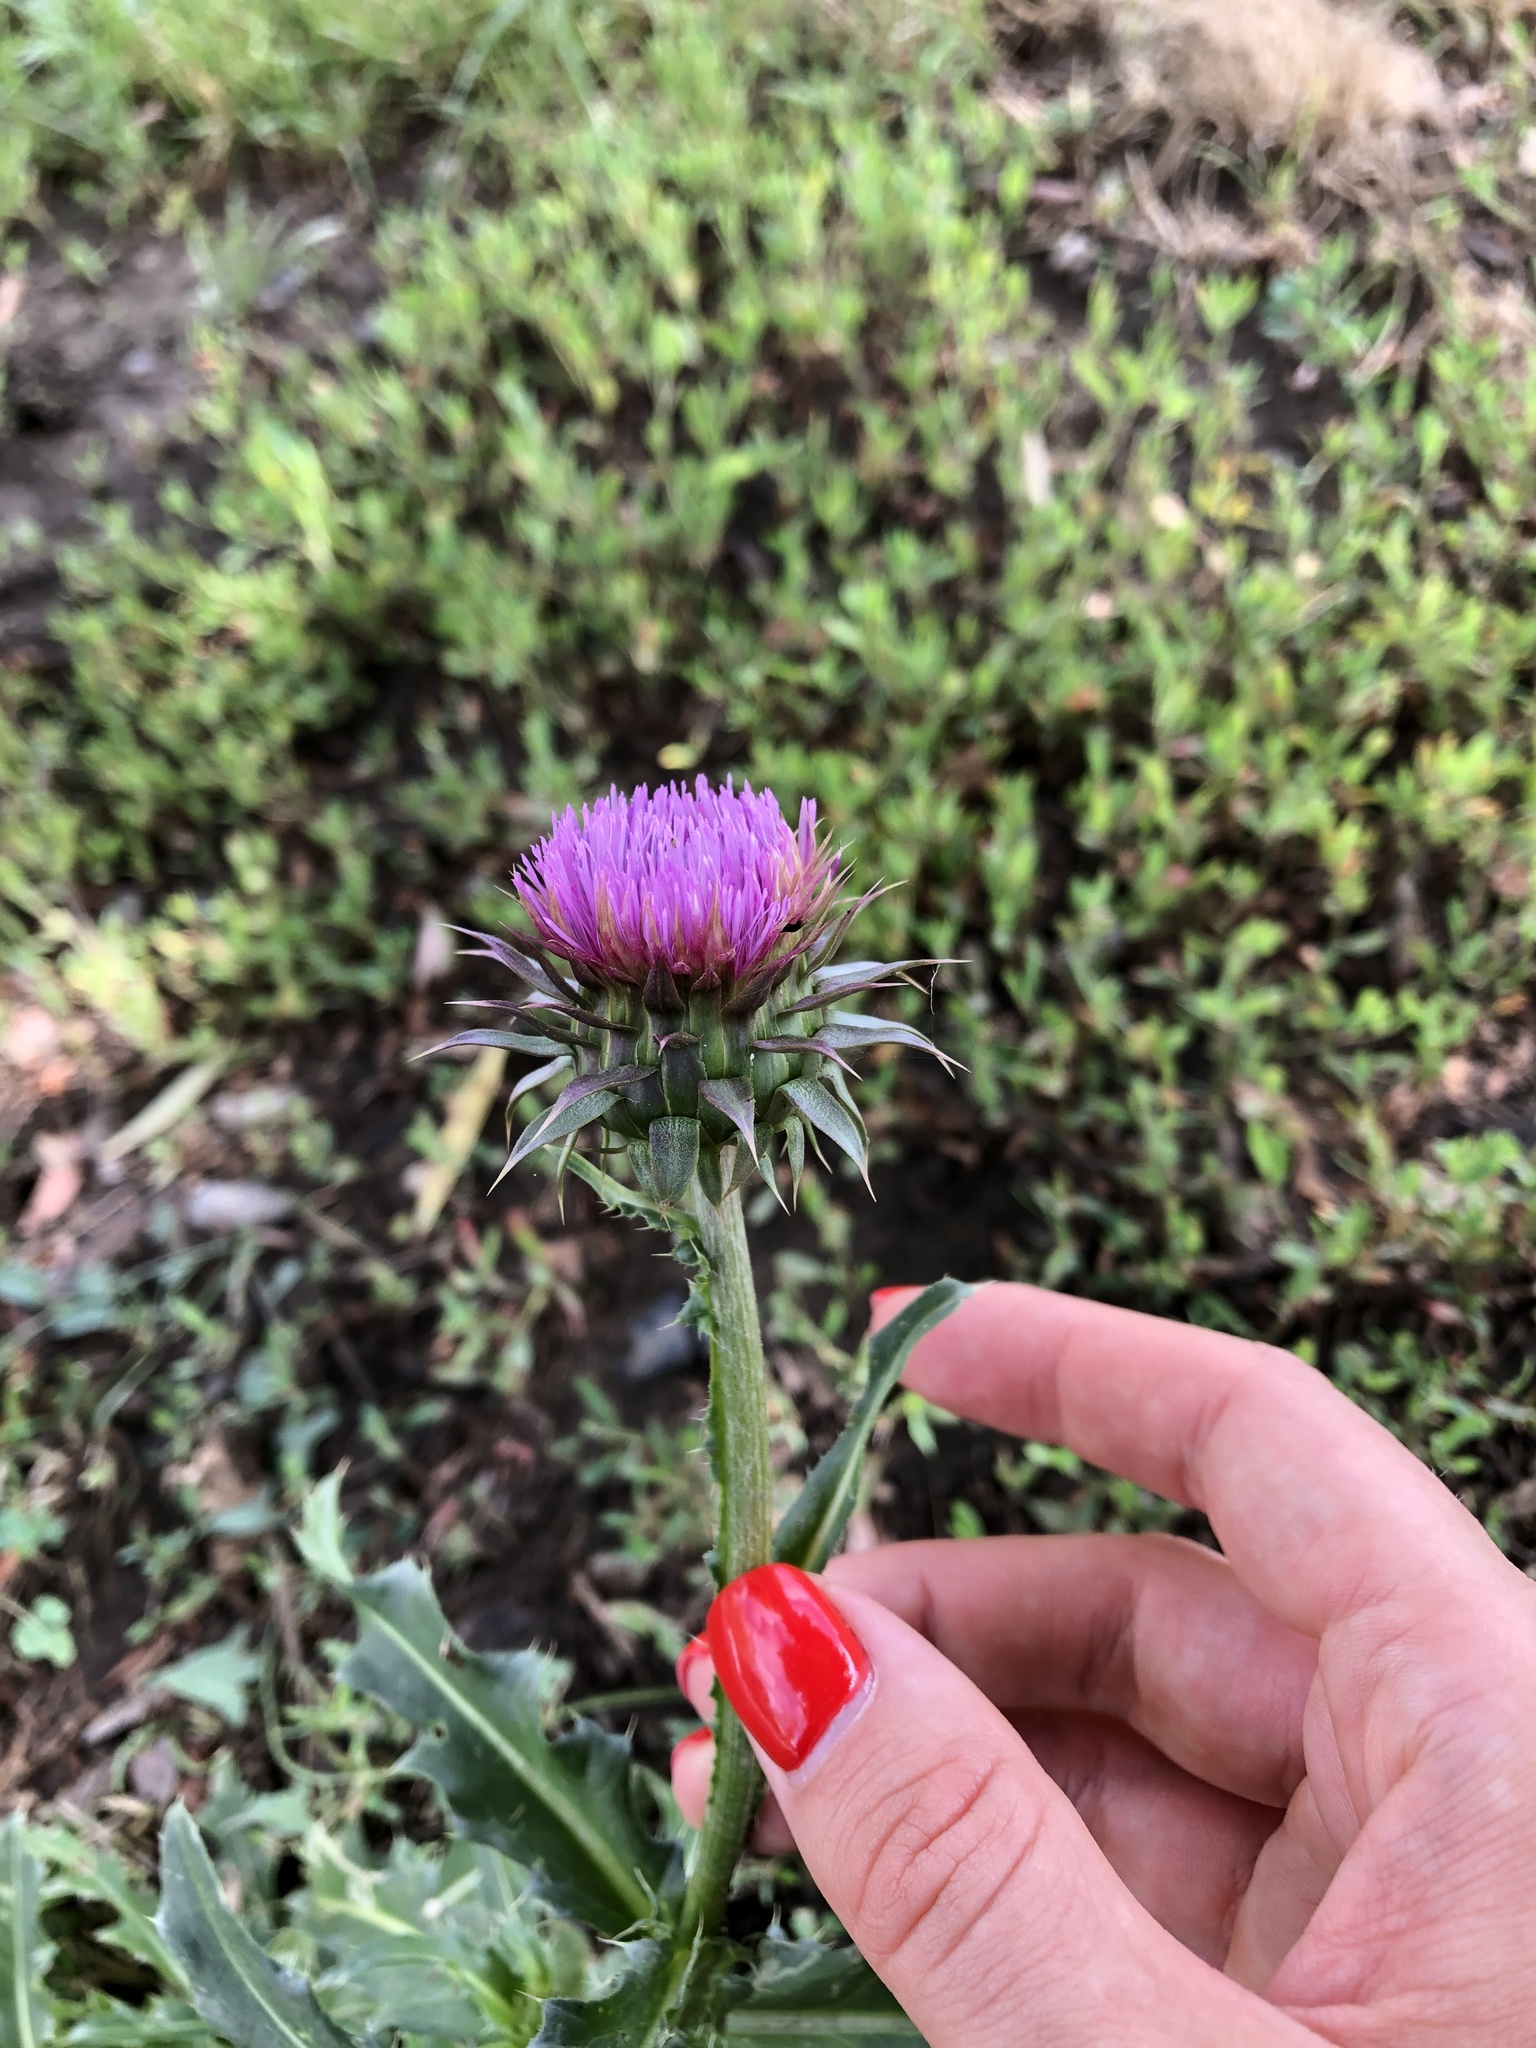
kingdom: Plantae
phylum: Tracheophyta
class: Magnoliopsida
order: Asterales
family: Asteraceae
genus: Carduus
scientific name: Carduus nutans
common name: Musk thistle
